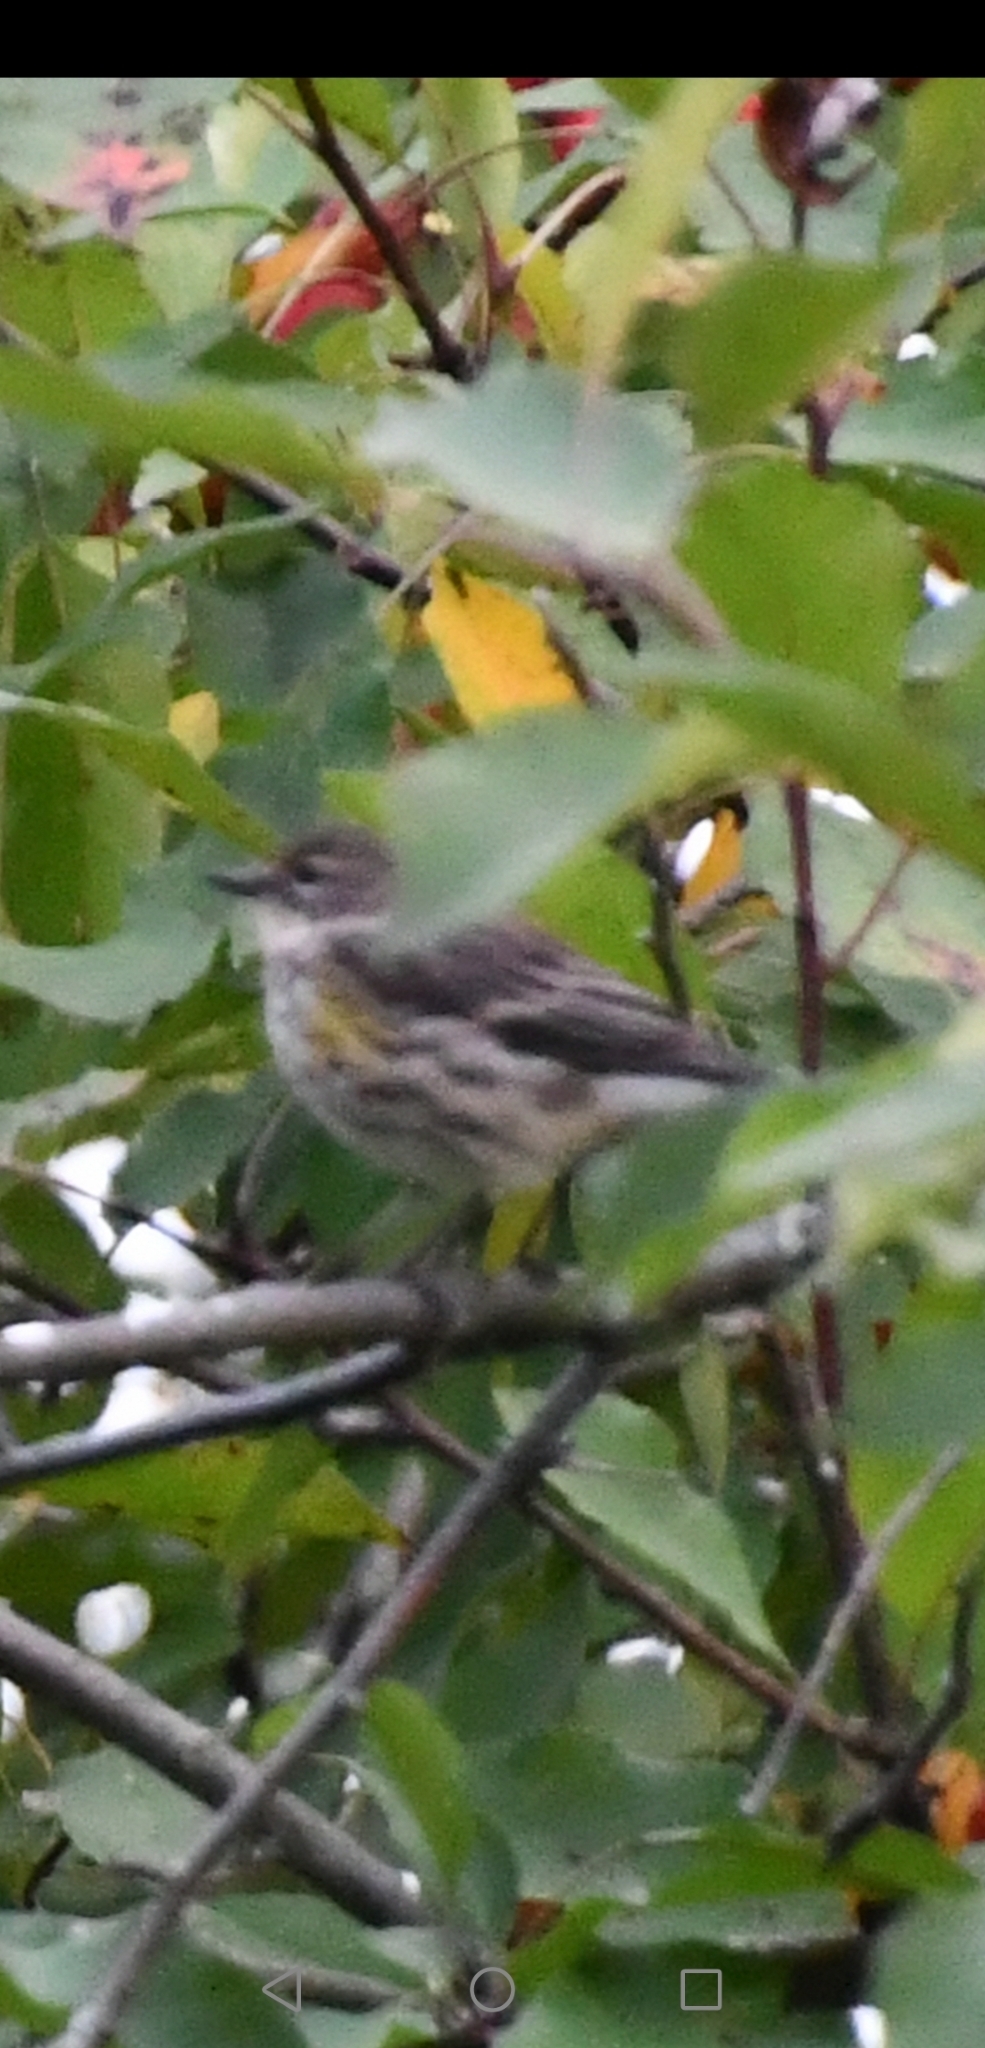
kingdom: Animalia
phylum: Chordata
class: Aves
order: Passeriformes
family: Parulidae
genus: Setophaga
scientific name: Setophaga coronata
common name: Myrtle warbler
